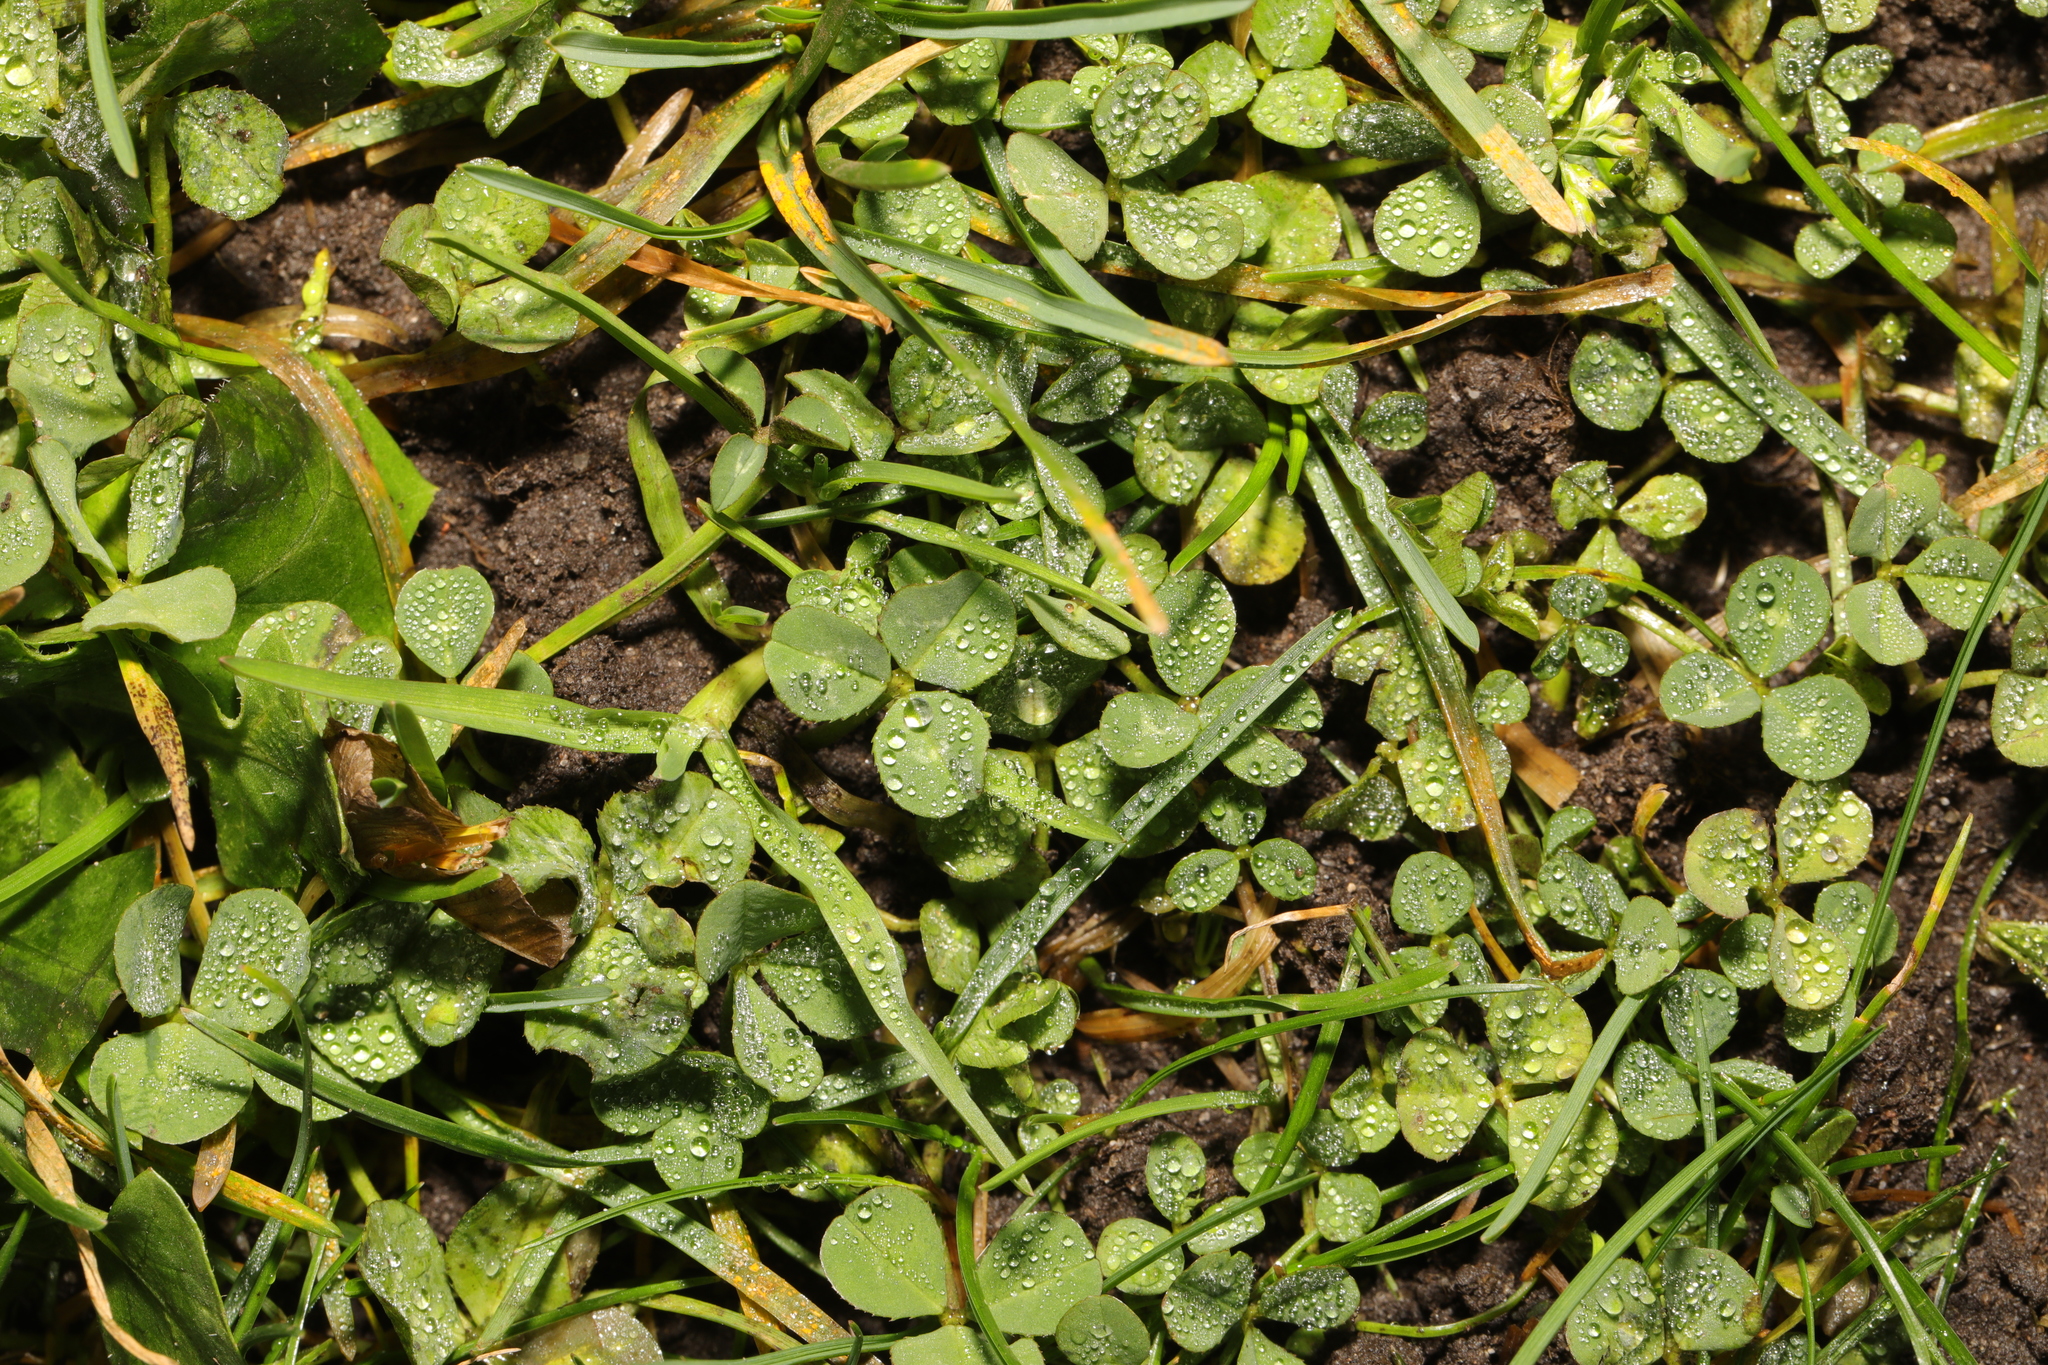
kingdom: Plantae
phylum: Tracheophyta
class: Magnoliopsida
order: Fabales
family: Fabaceae
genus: Trifolium
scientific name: Trifolium repens
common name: White clover
